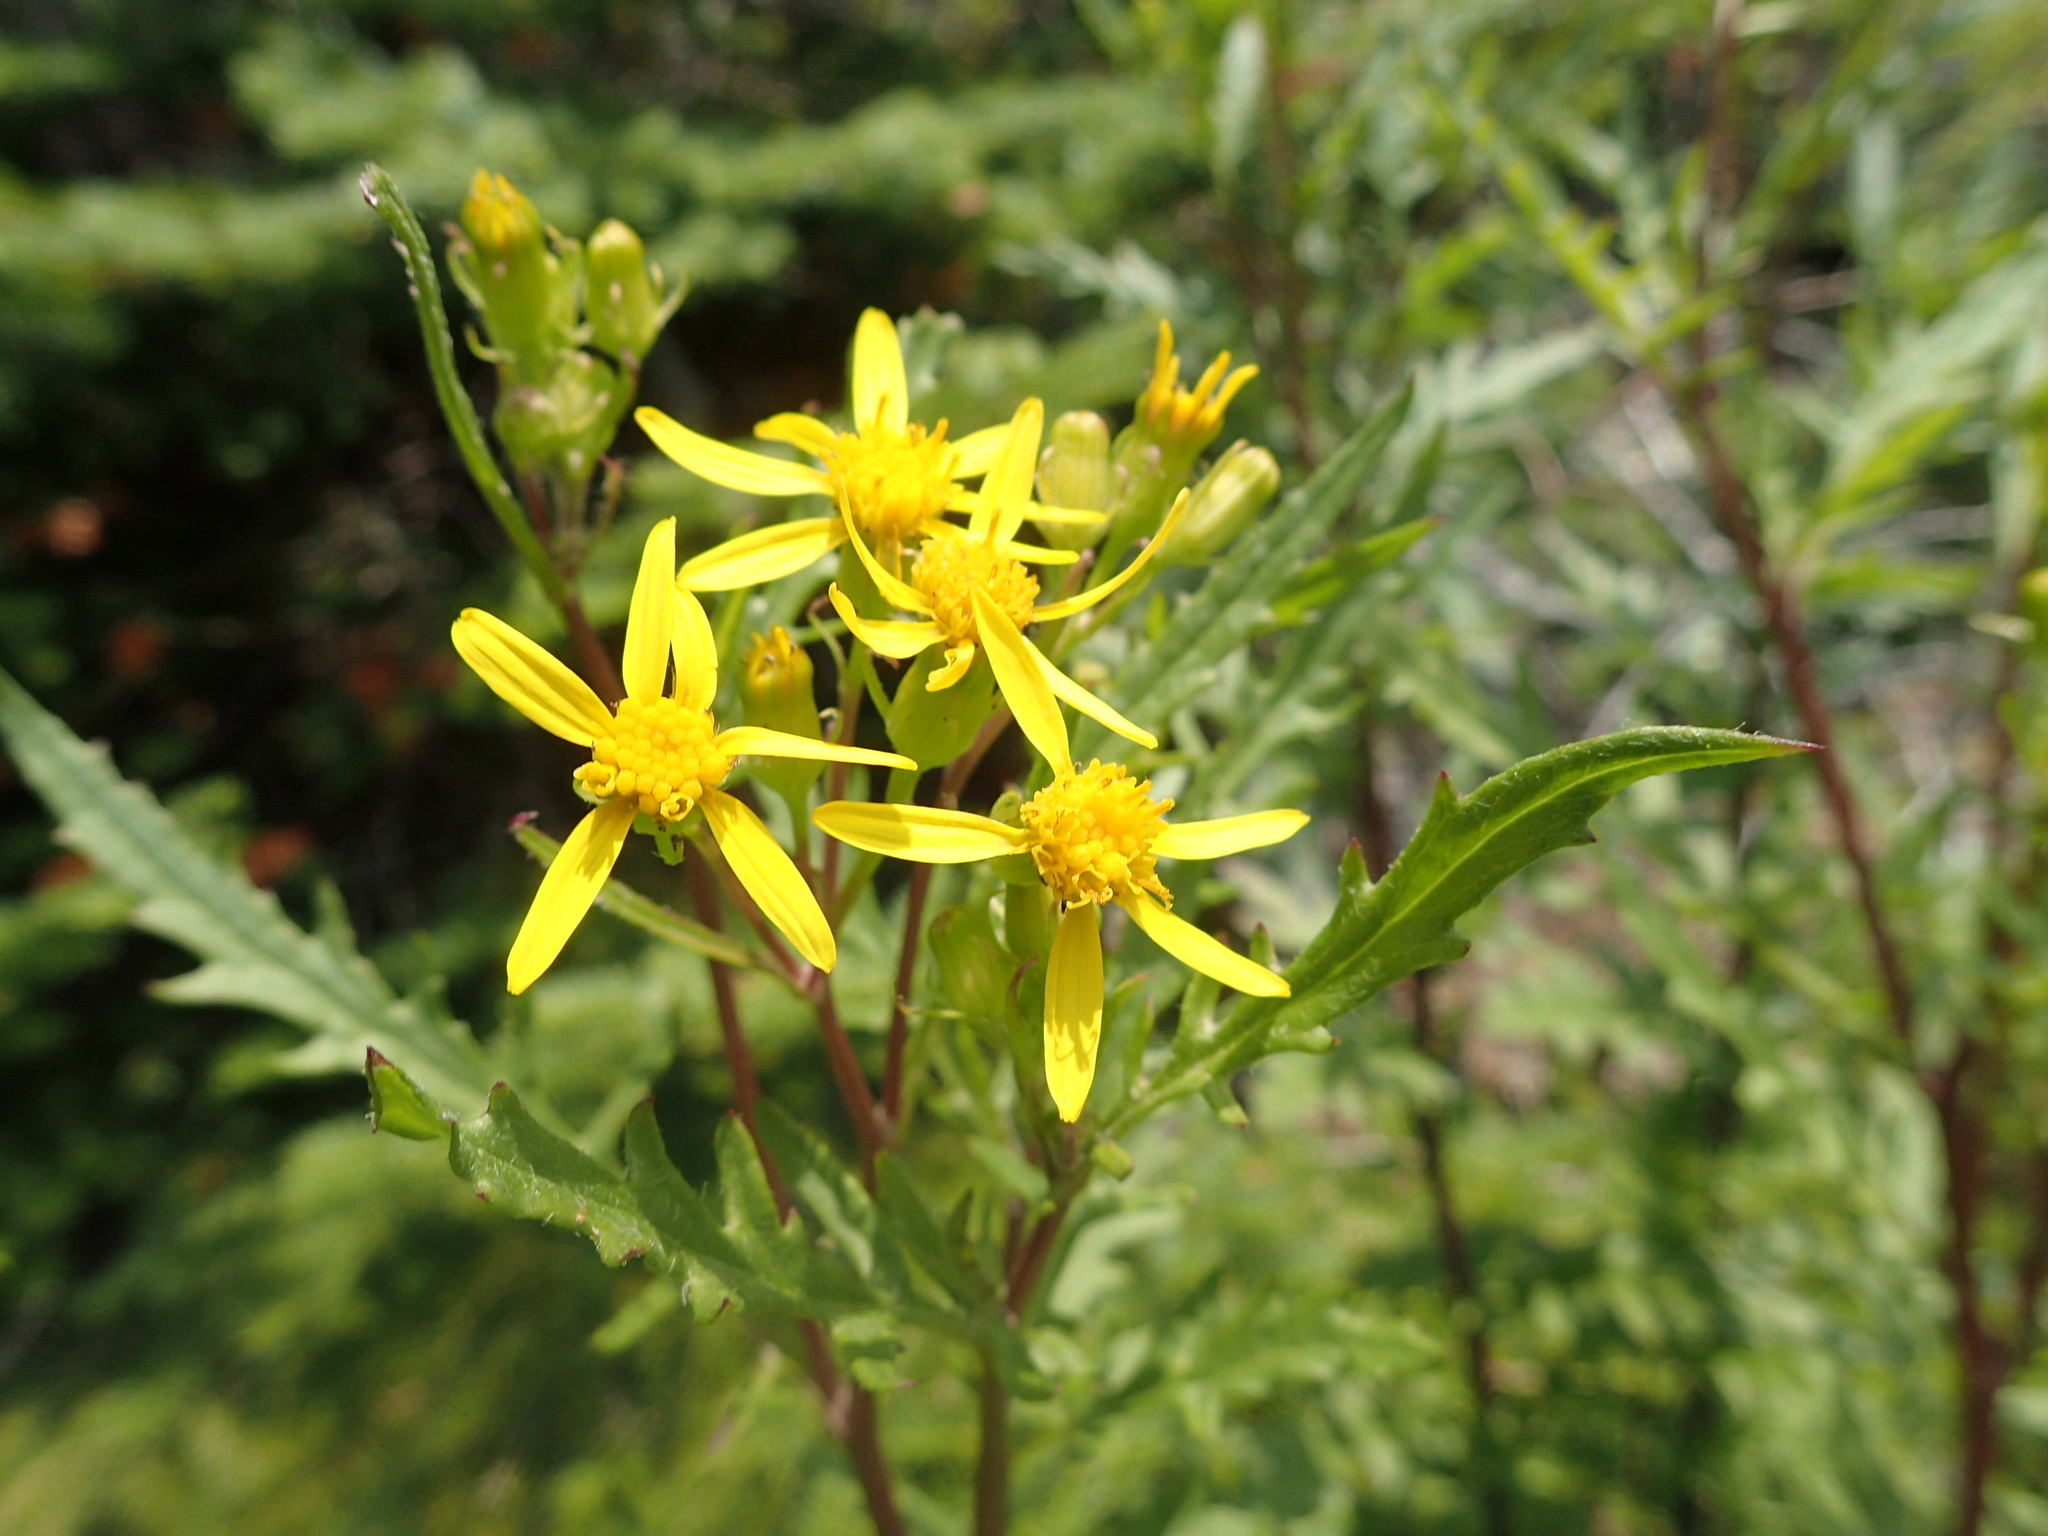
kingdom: Plantae
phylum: Tracheophyta
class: Magnoliopsida
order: Asterales
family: Asteraceae
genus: Senecio
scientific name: Senecio eremophilus
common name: Desert ragwort
